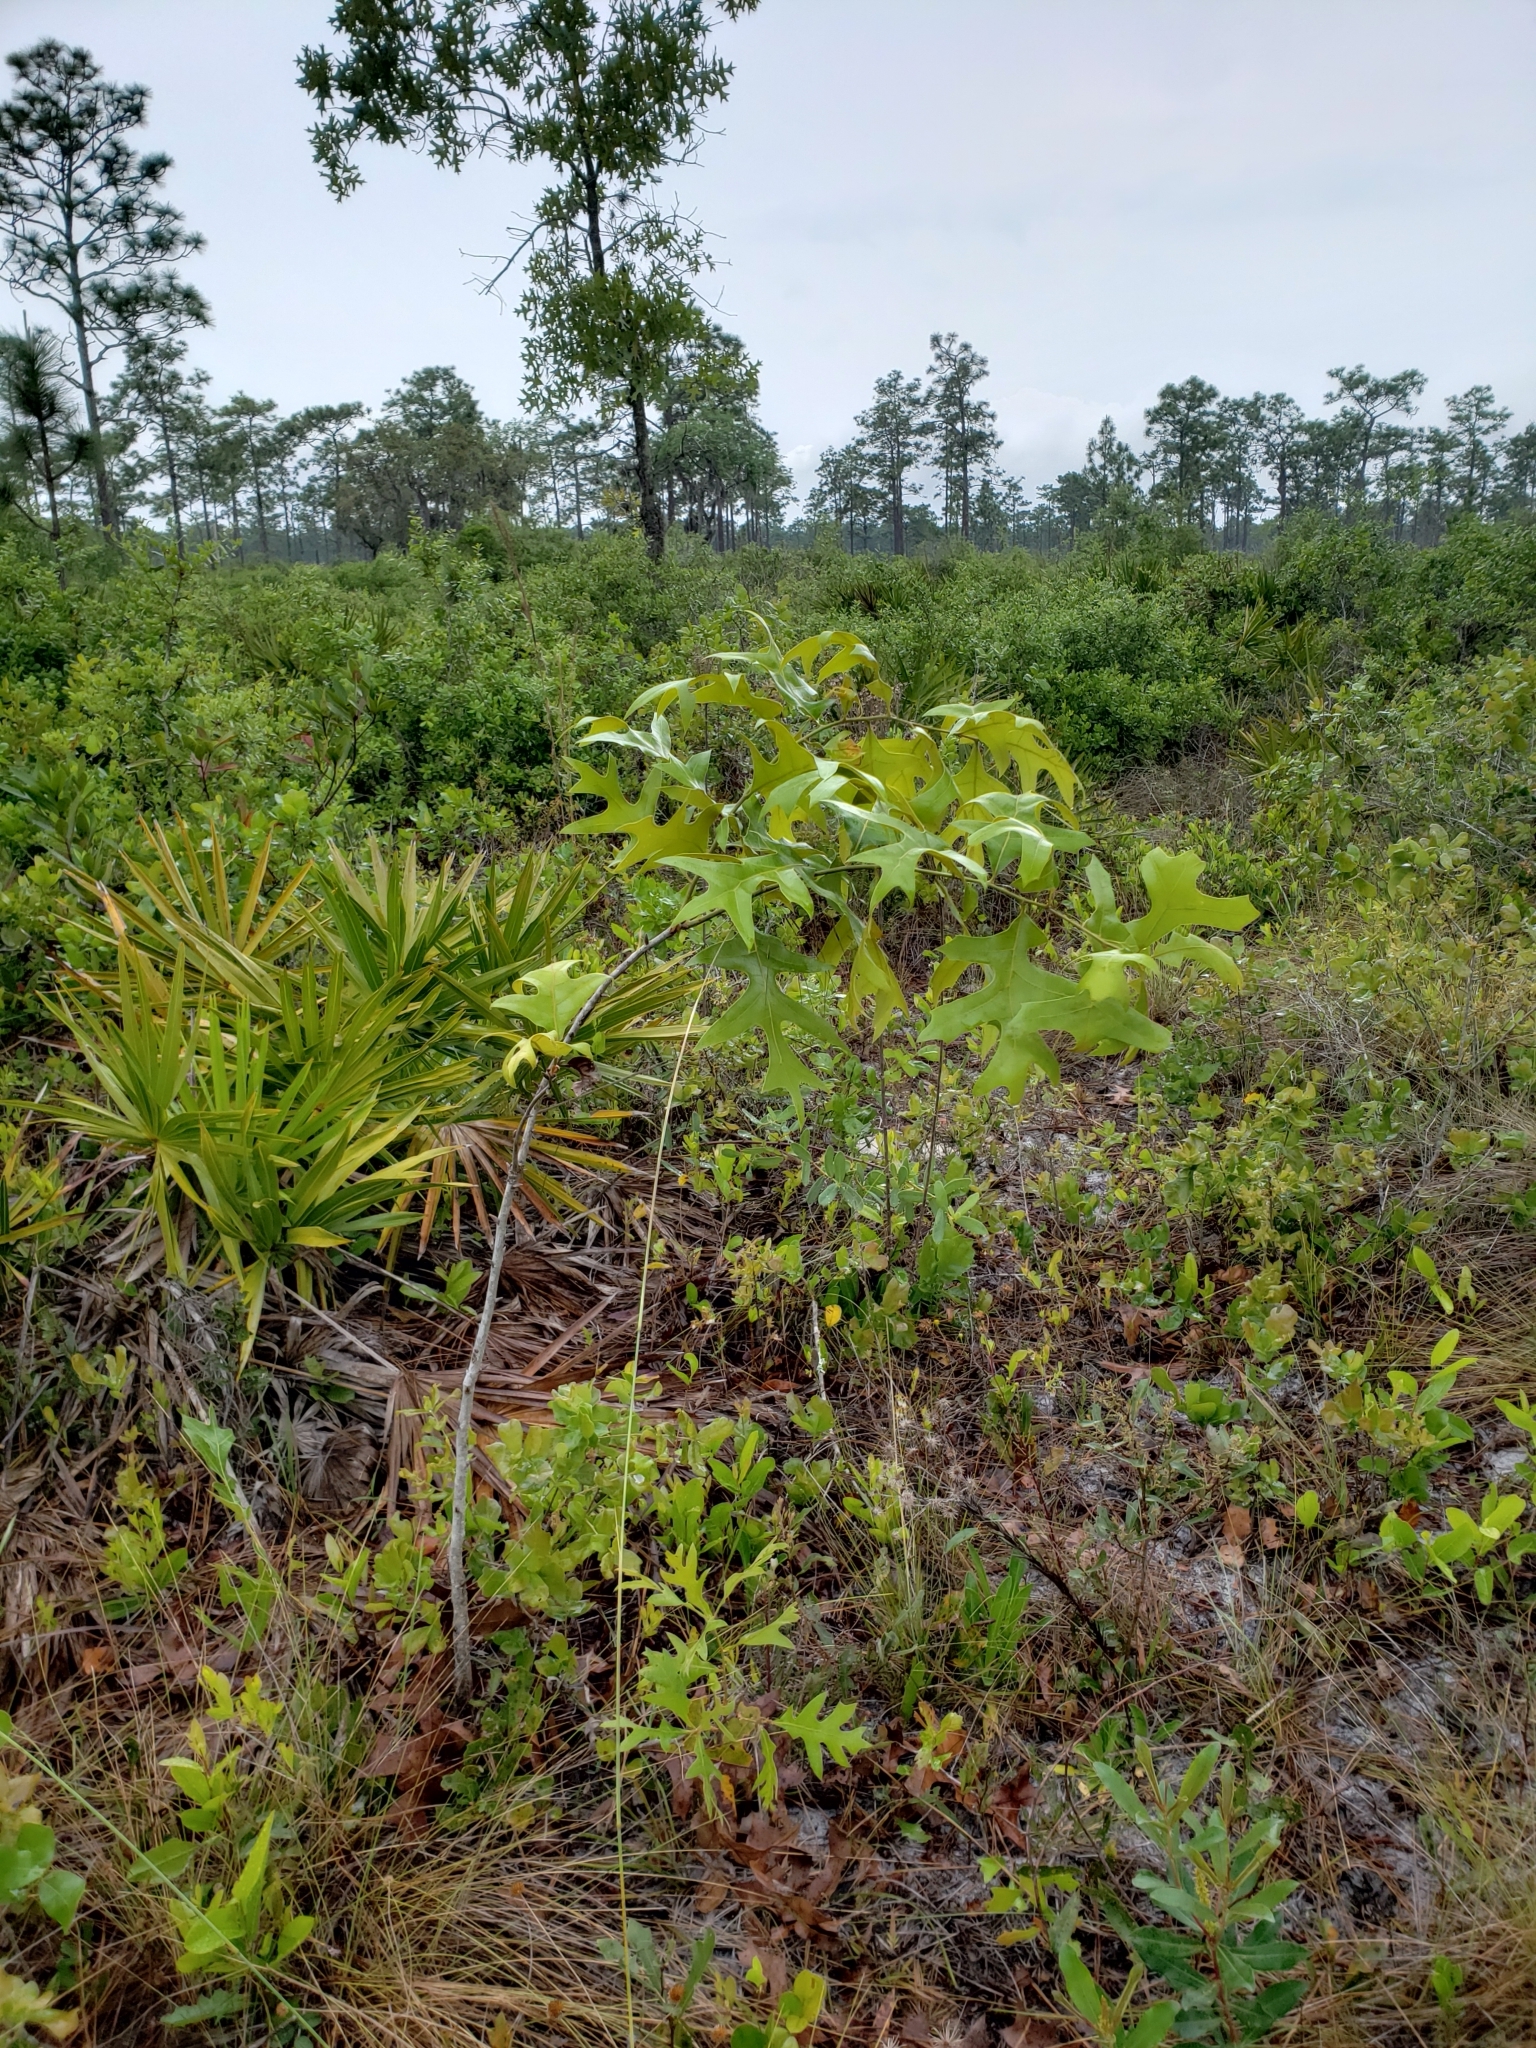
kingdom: Plantae
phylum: Tracheophyta
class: Magnoliopsida
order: Fagales
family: Fagaceae
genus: Quercus
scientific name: Quercus laevis
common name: Turkey oak
